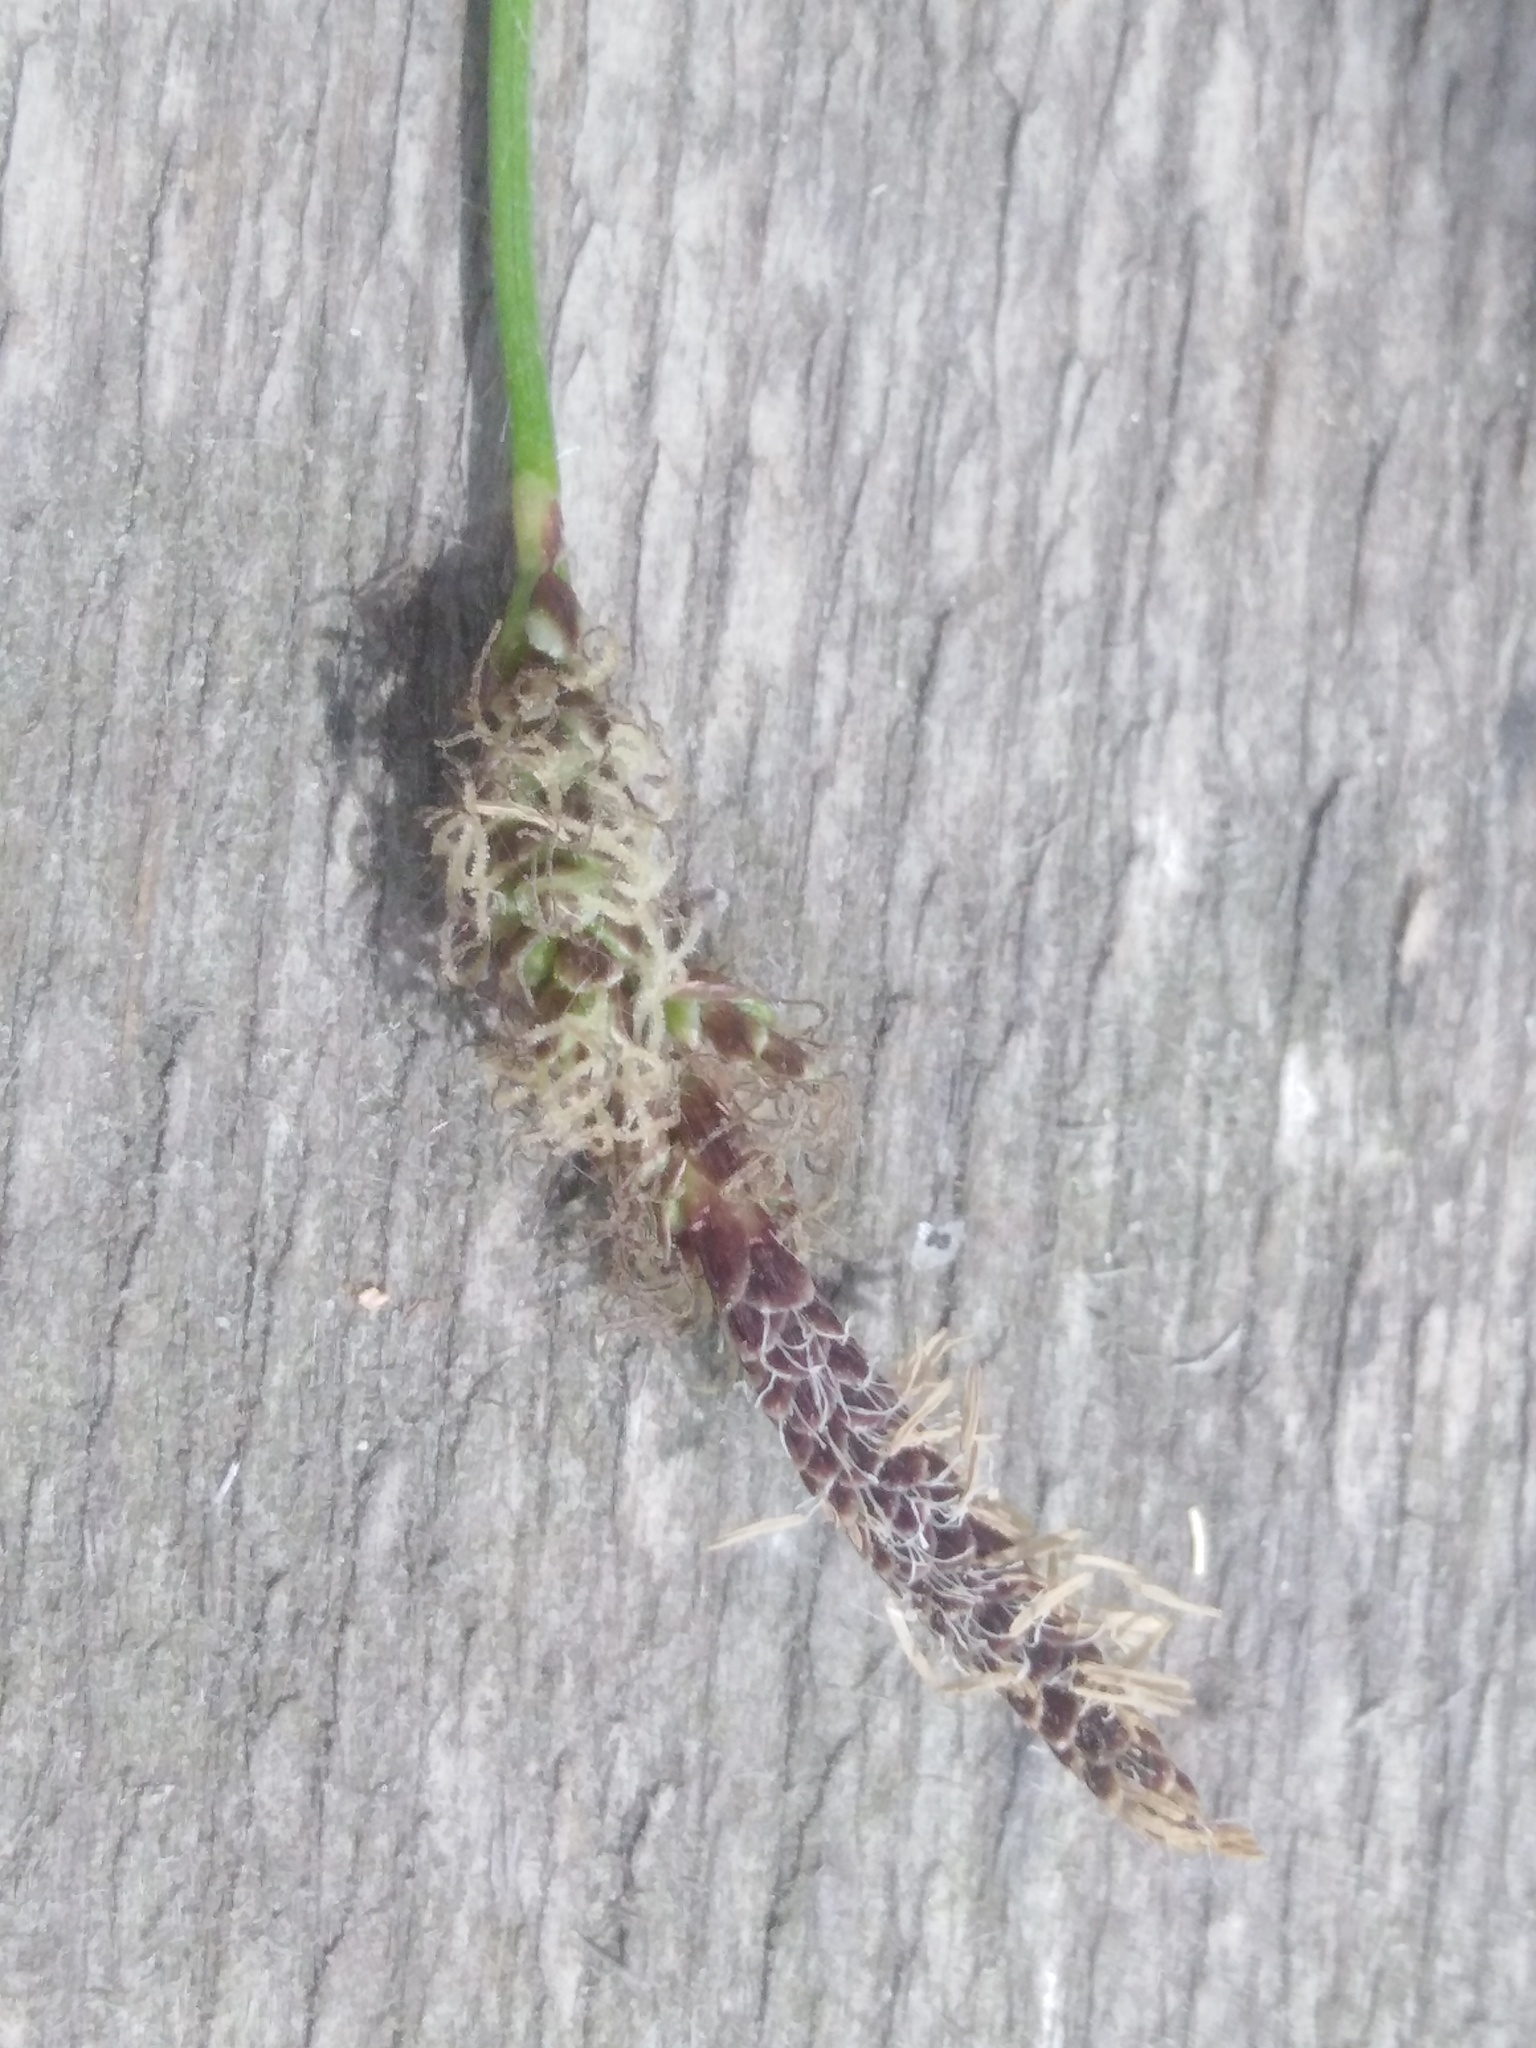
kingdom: Plantae
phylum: Tracheophyta
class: Liliopsida
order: Poales
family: Cyperaceae
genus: Carex
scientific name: Carex ericetorum
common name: Rare spring-sedge
